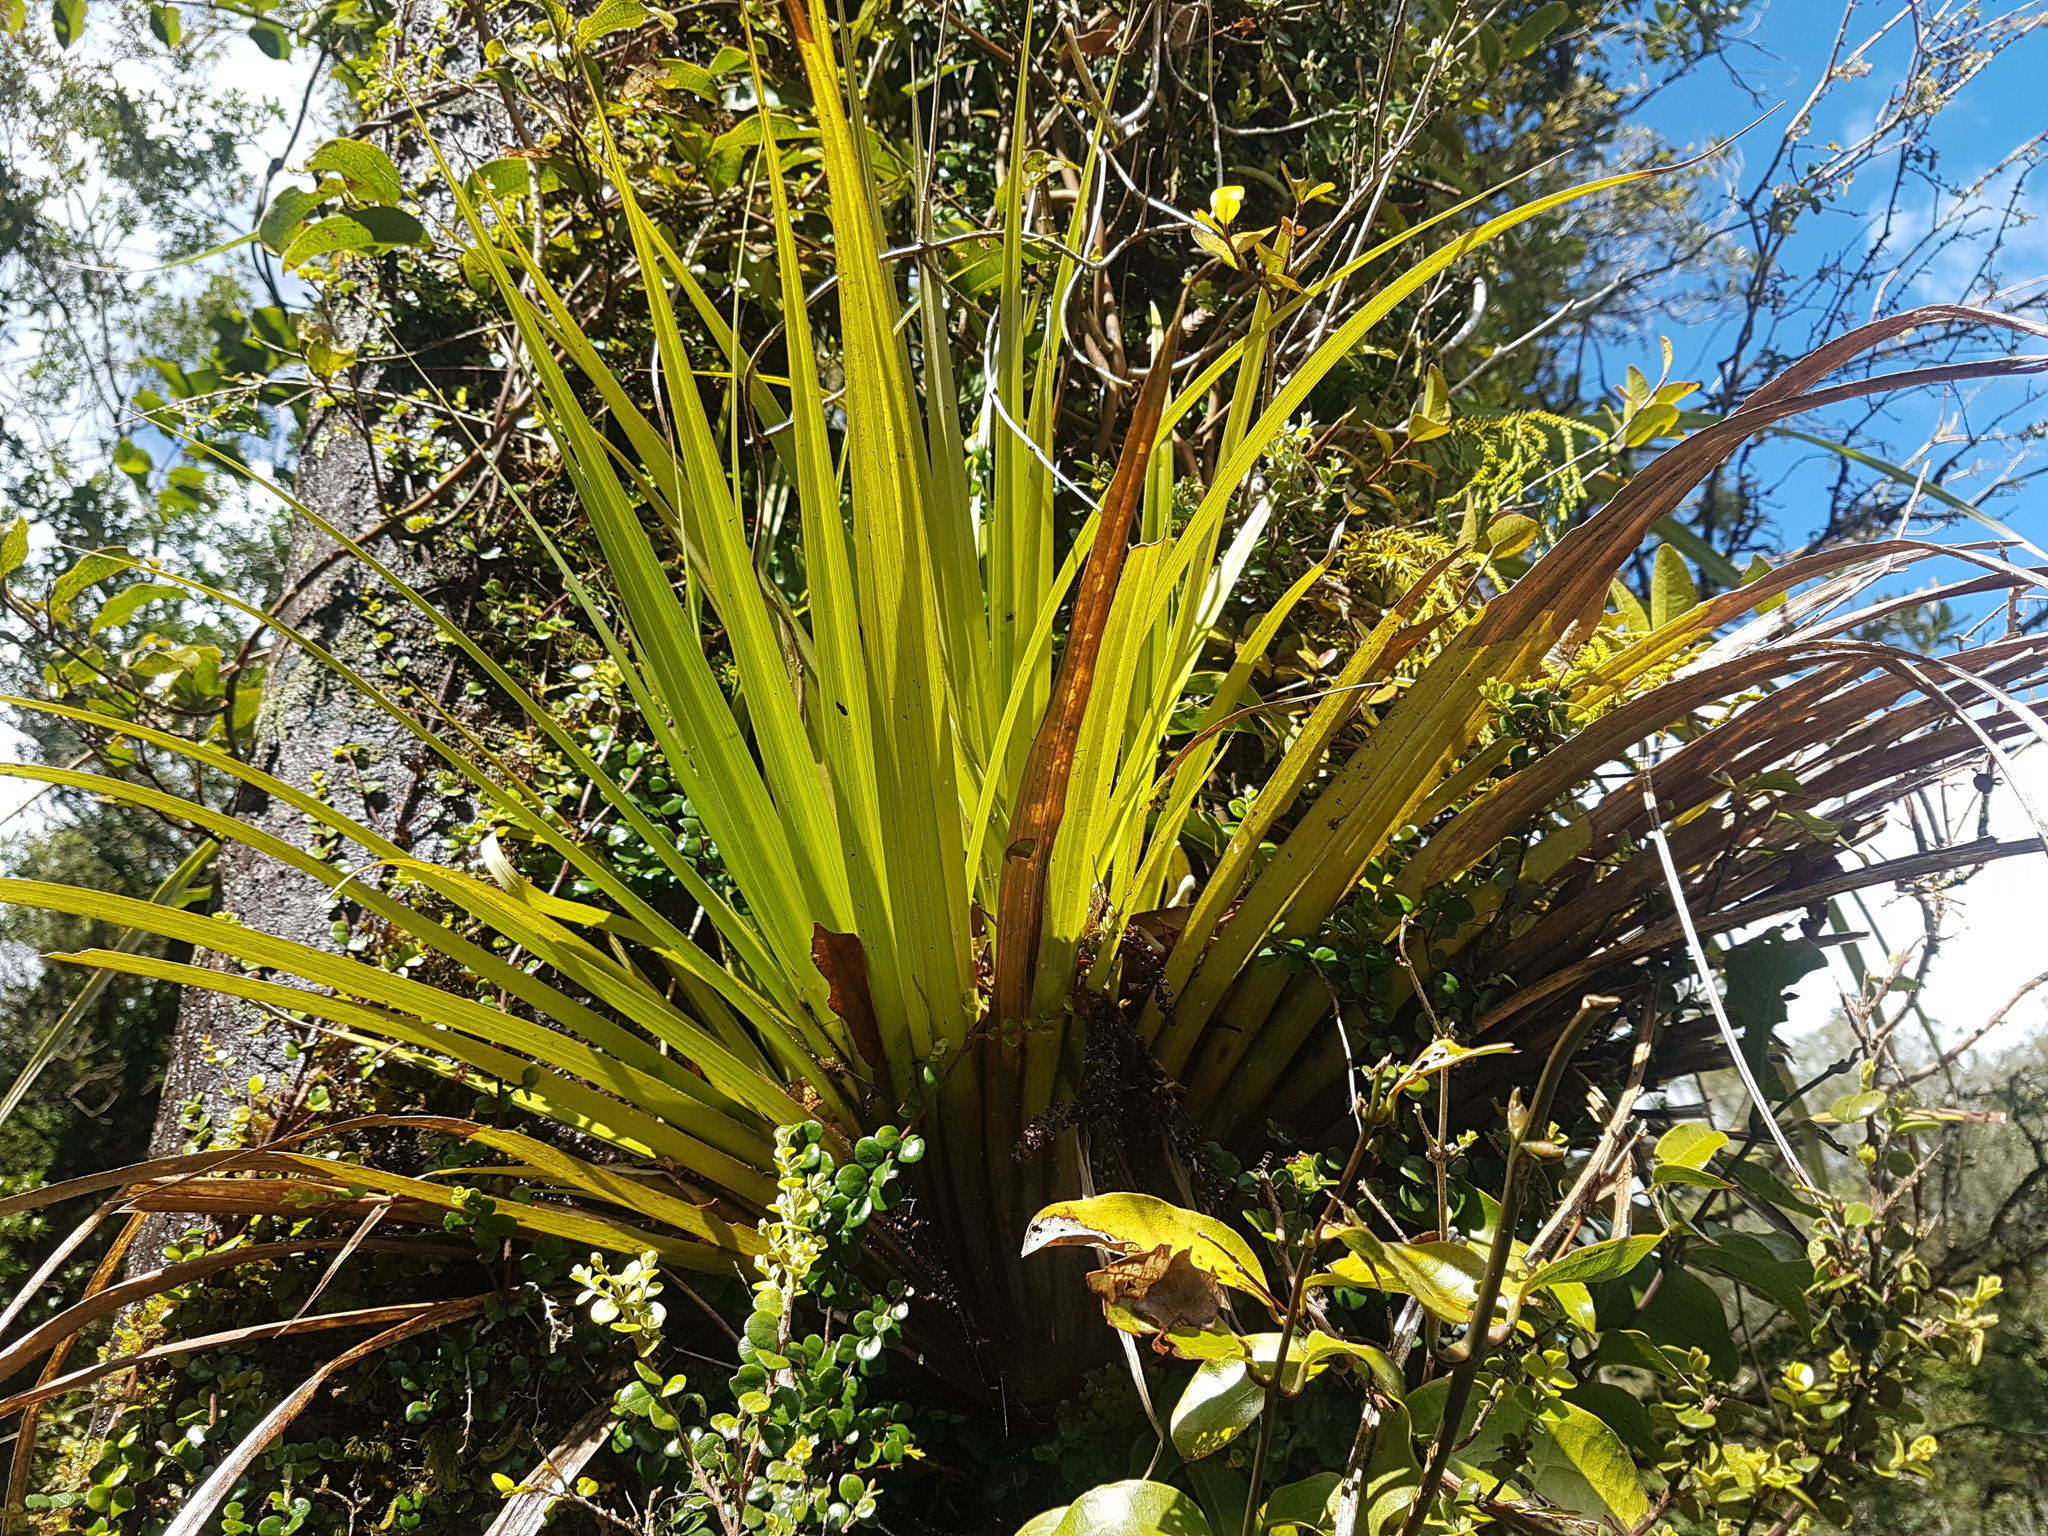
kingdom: Plantae
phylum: Tracheophyta
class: Liliopsida
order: Asparagales
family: Asteliaceae
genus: Astelia
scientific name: Astelia hastata
